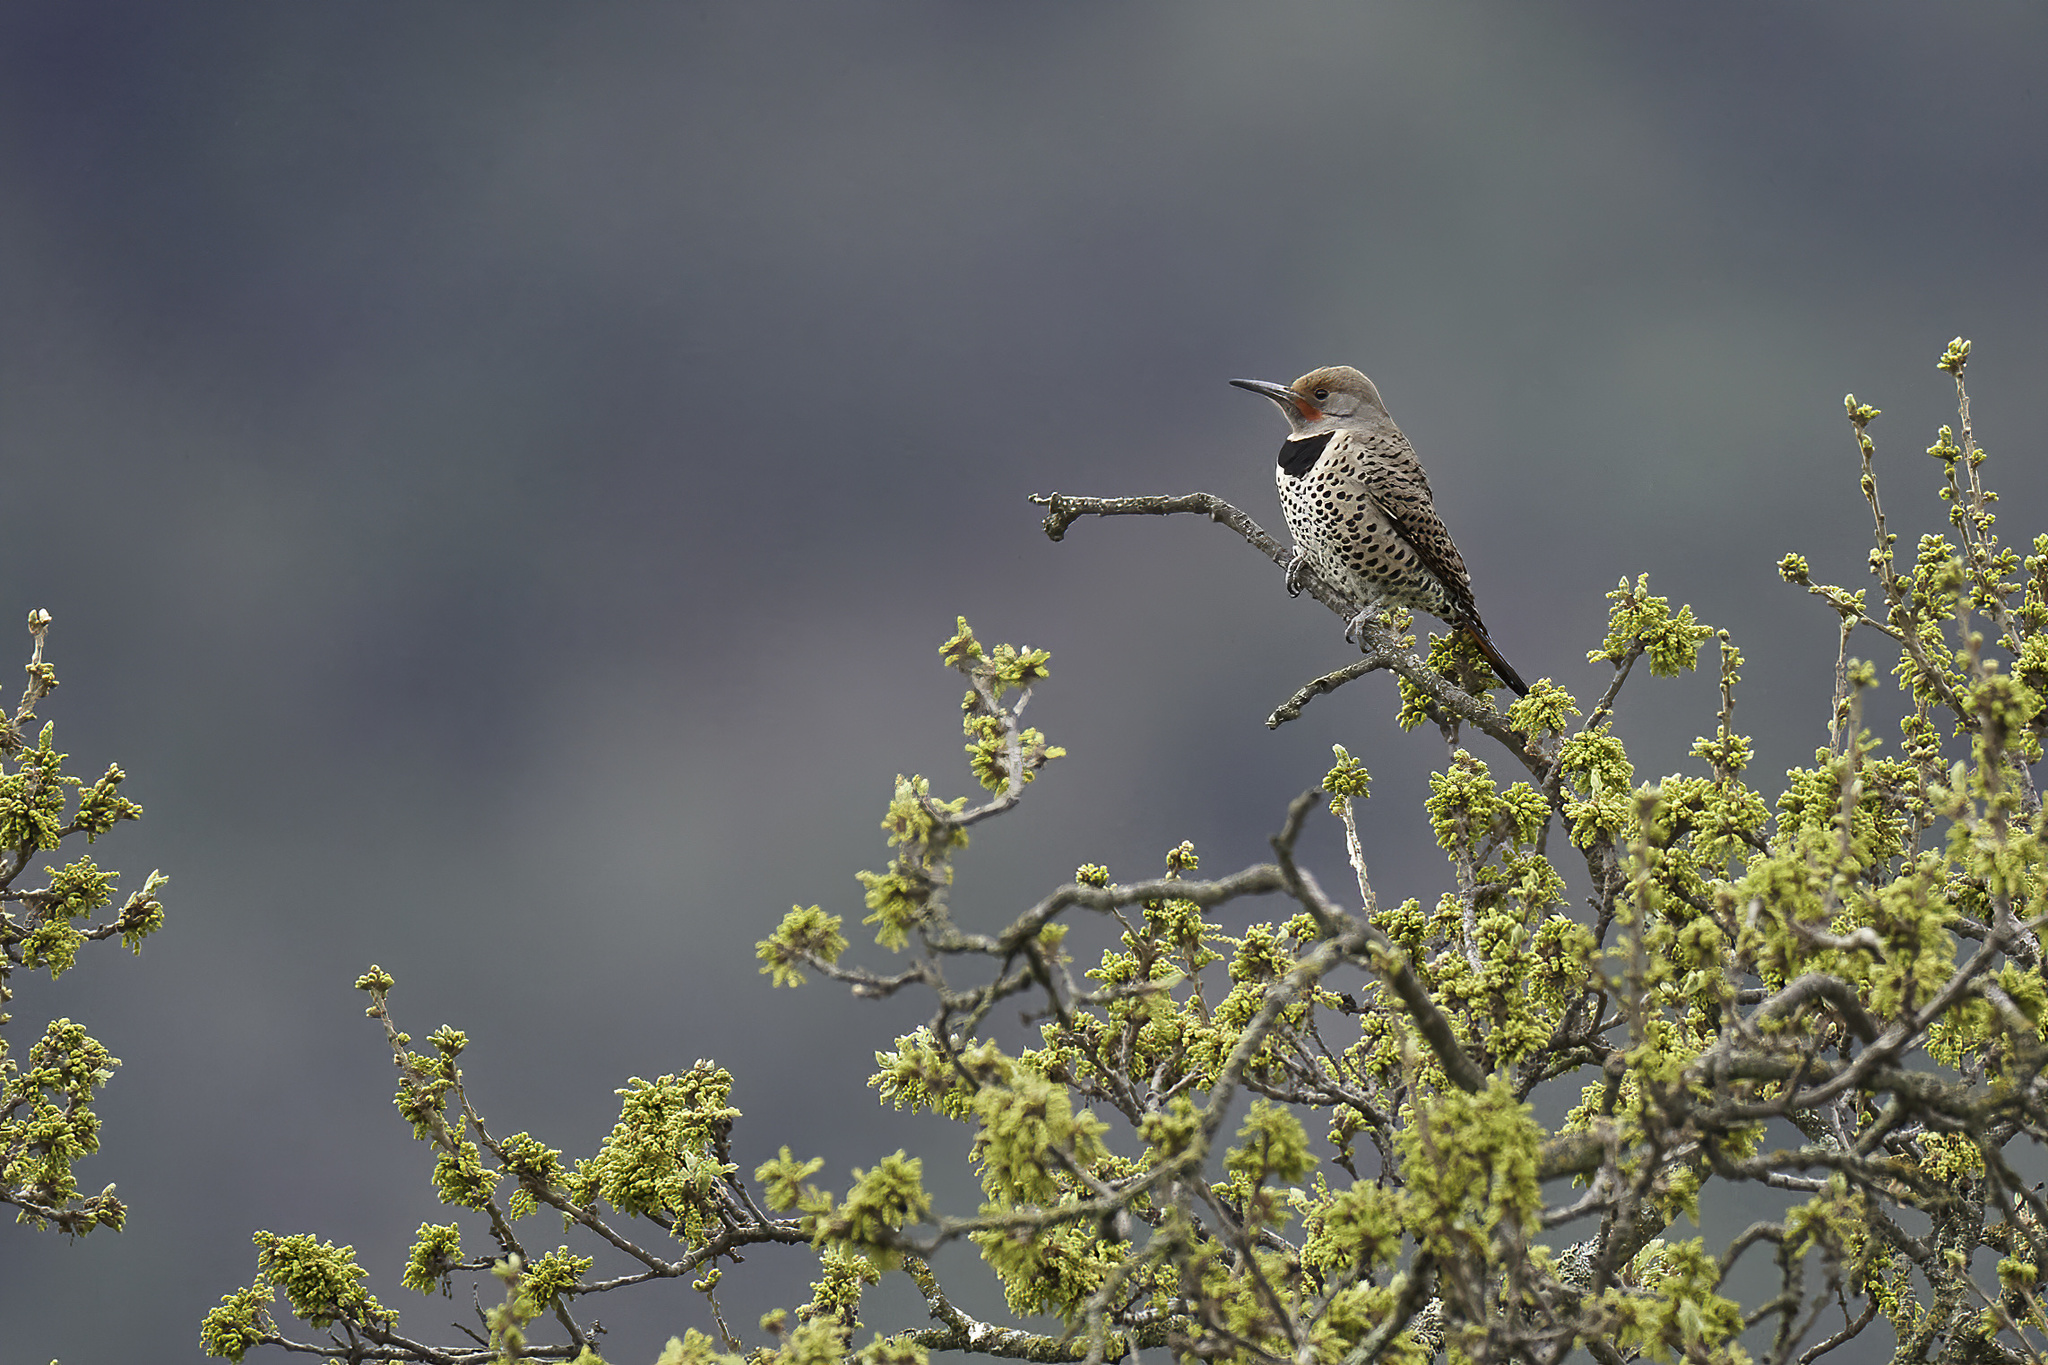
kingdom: Animalia
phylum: Chordata
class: Aves
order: Piciformes
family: Picidae
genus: Colaptes
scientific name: Colaptes auratus
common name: Northern flicker
